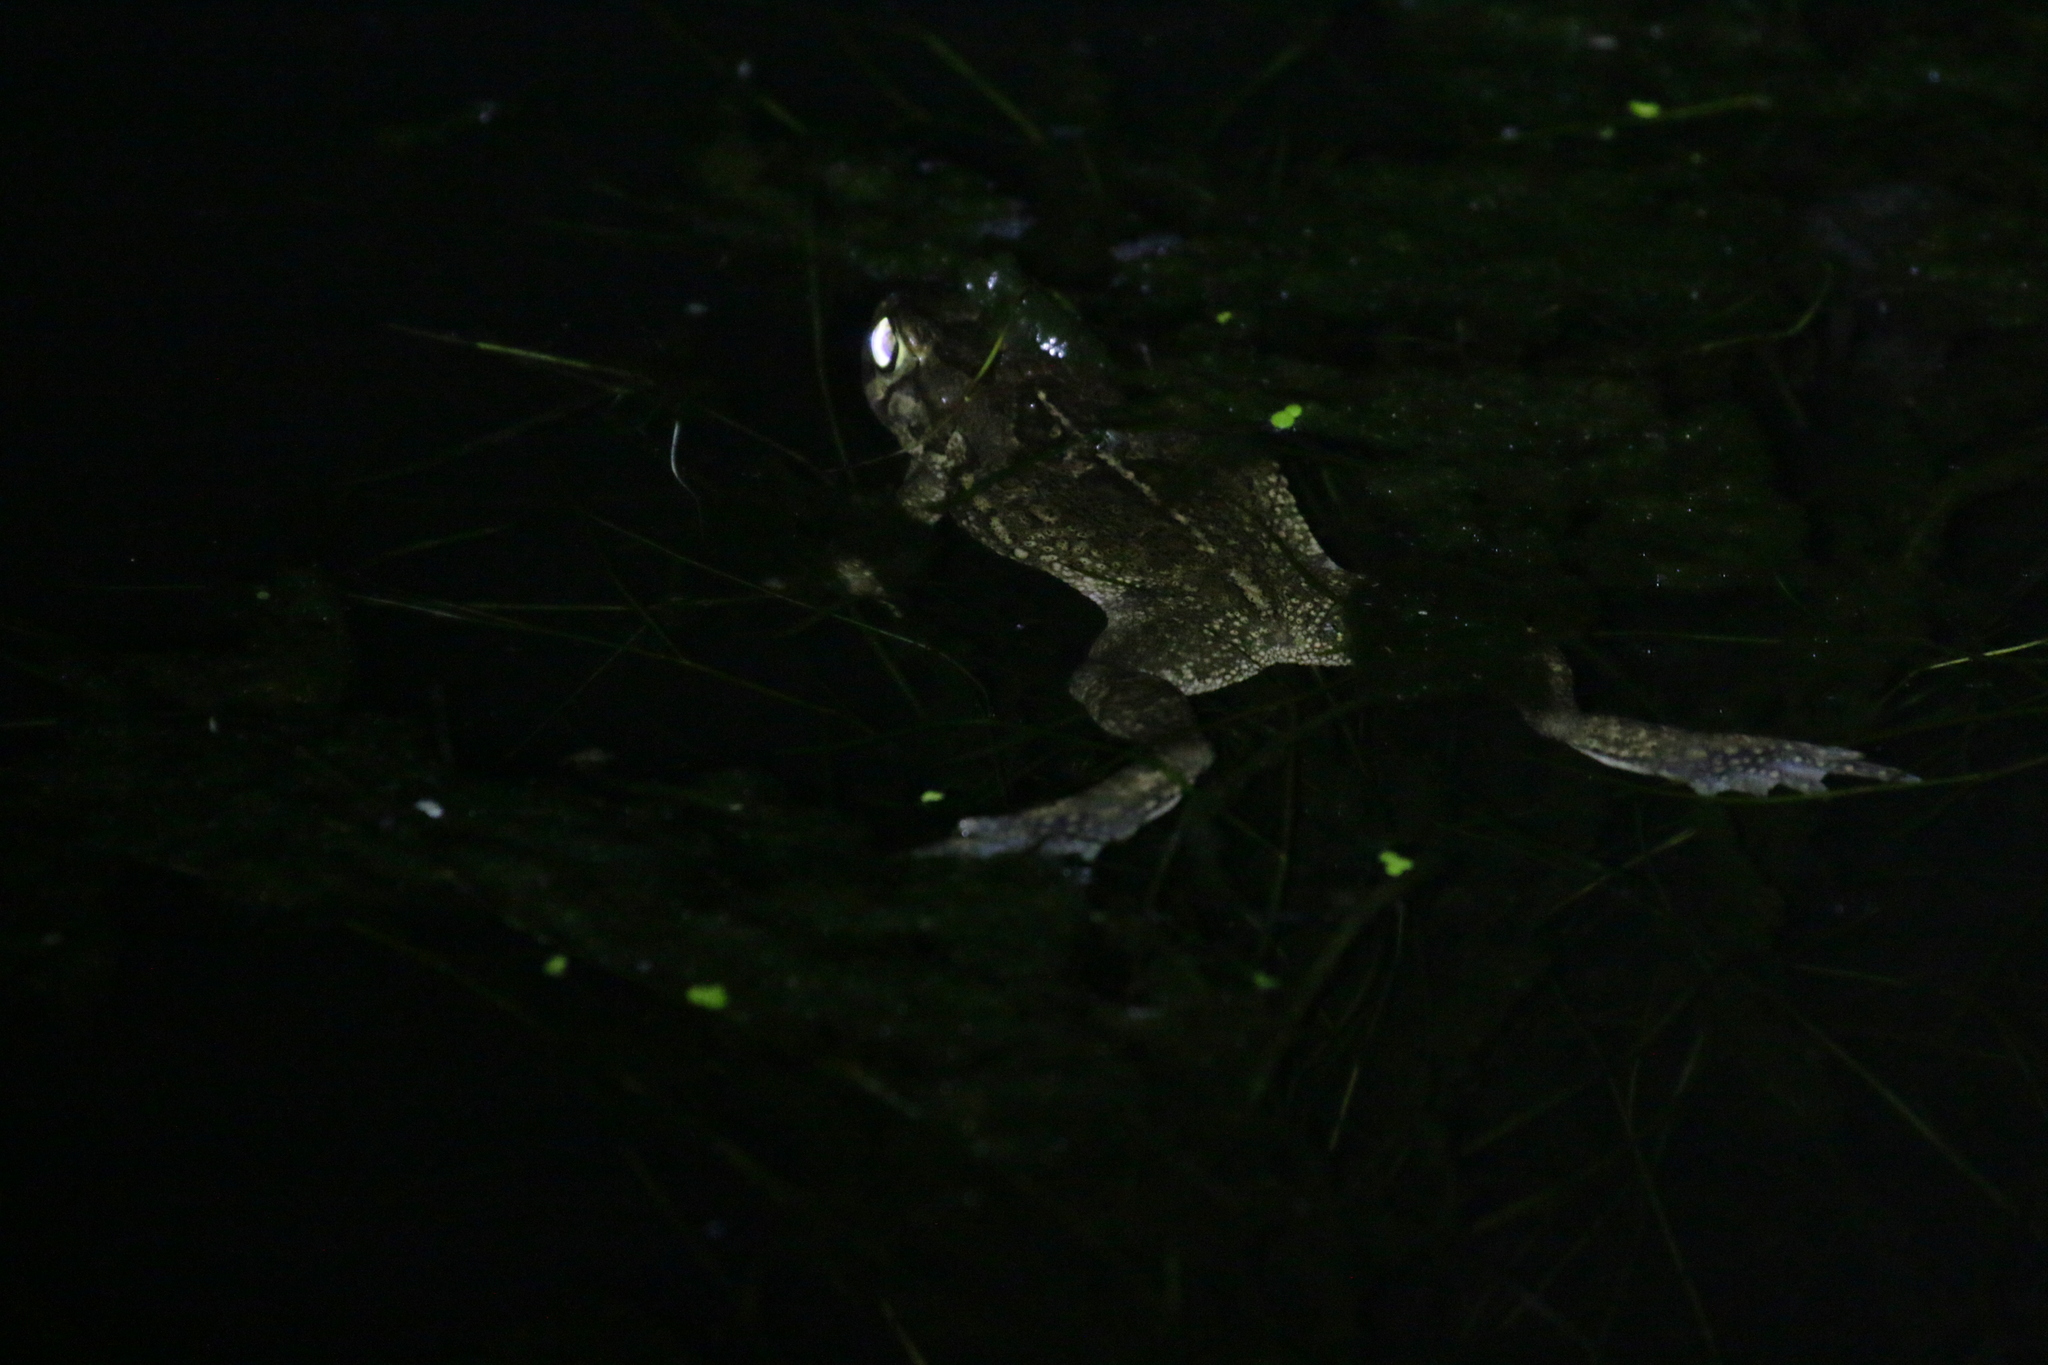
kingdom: Animalia
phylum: Chordata
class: Amphibia
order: Anura
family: Bufonidae
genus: Sclerophrys
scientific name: Sclerophrys capensis
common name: Ranger’s toad
